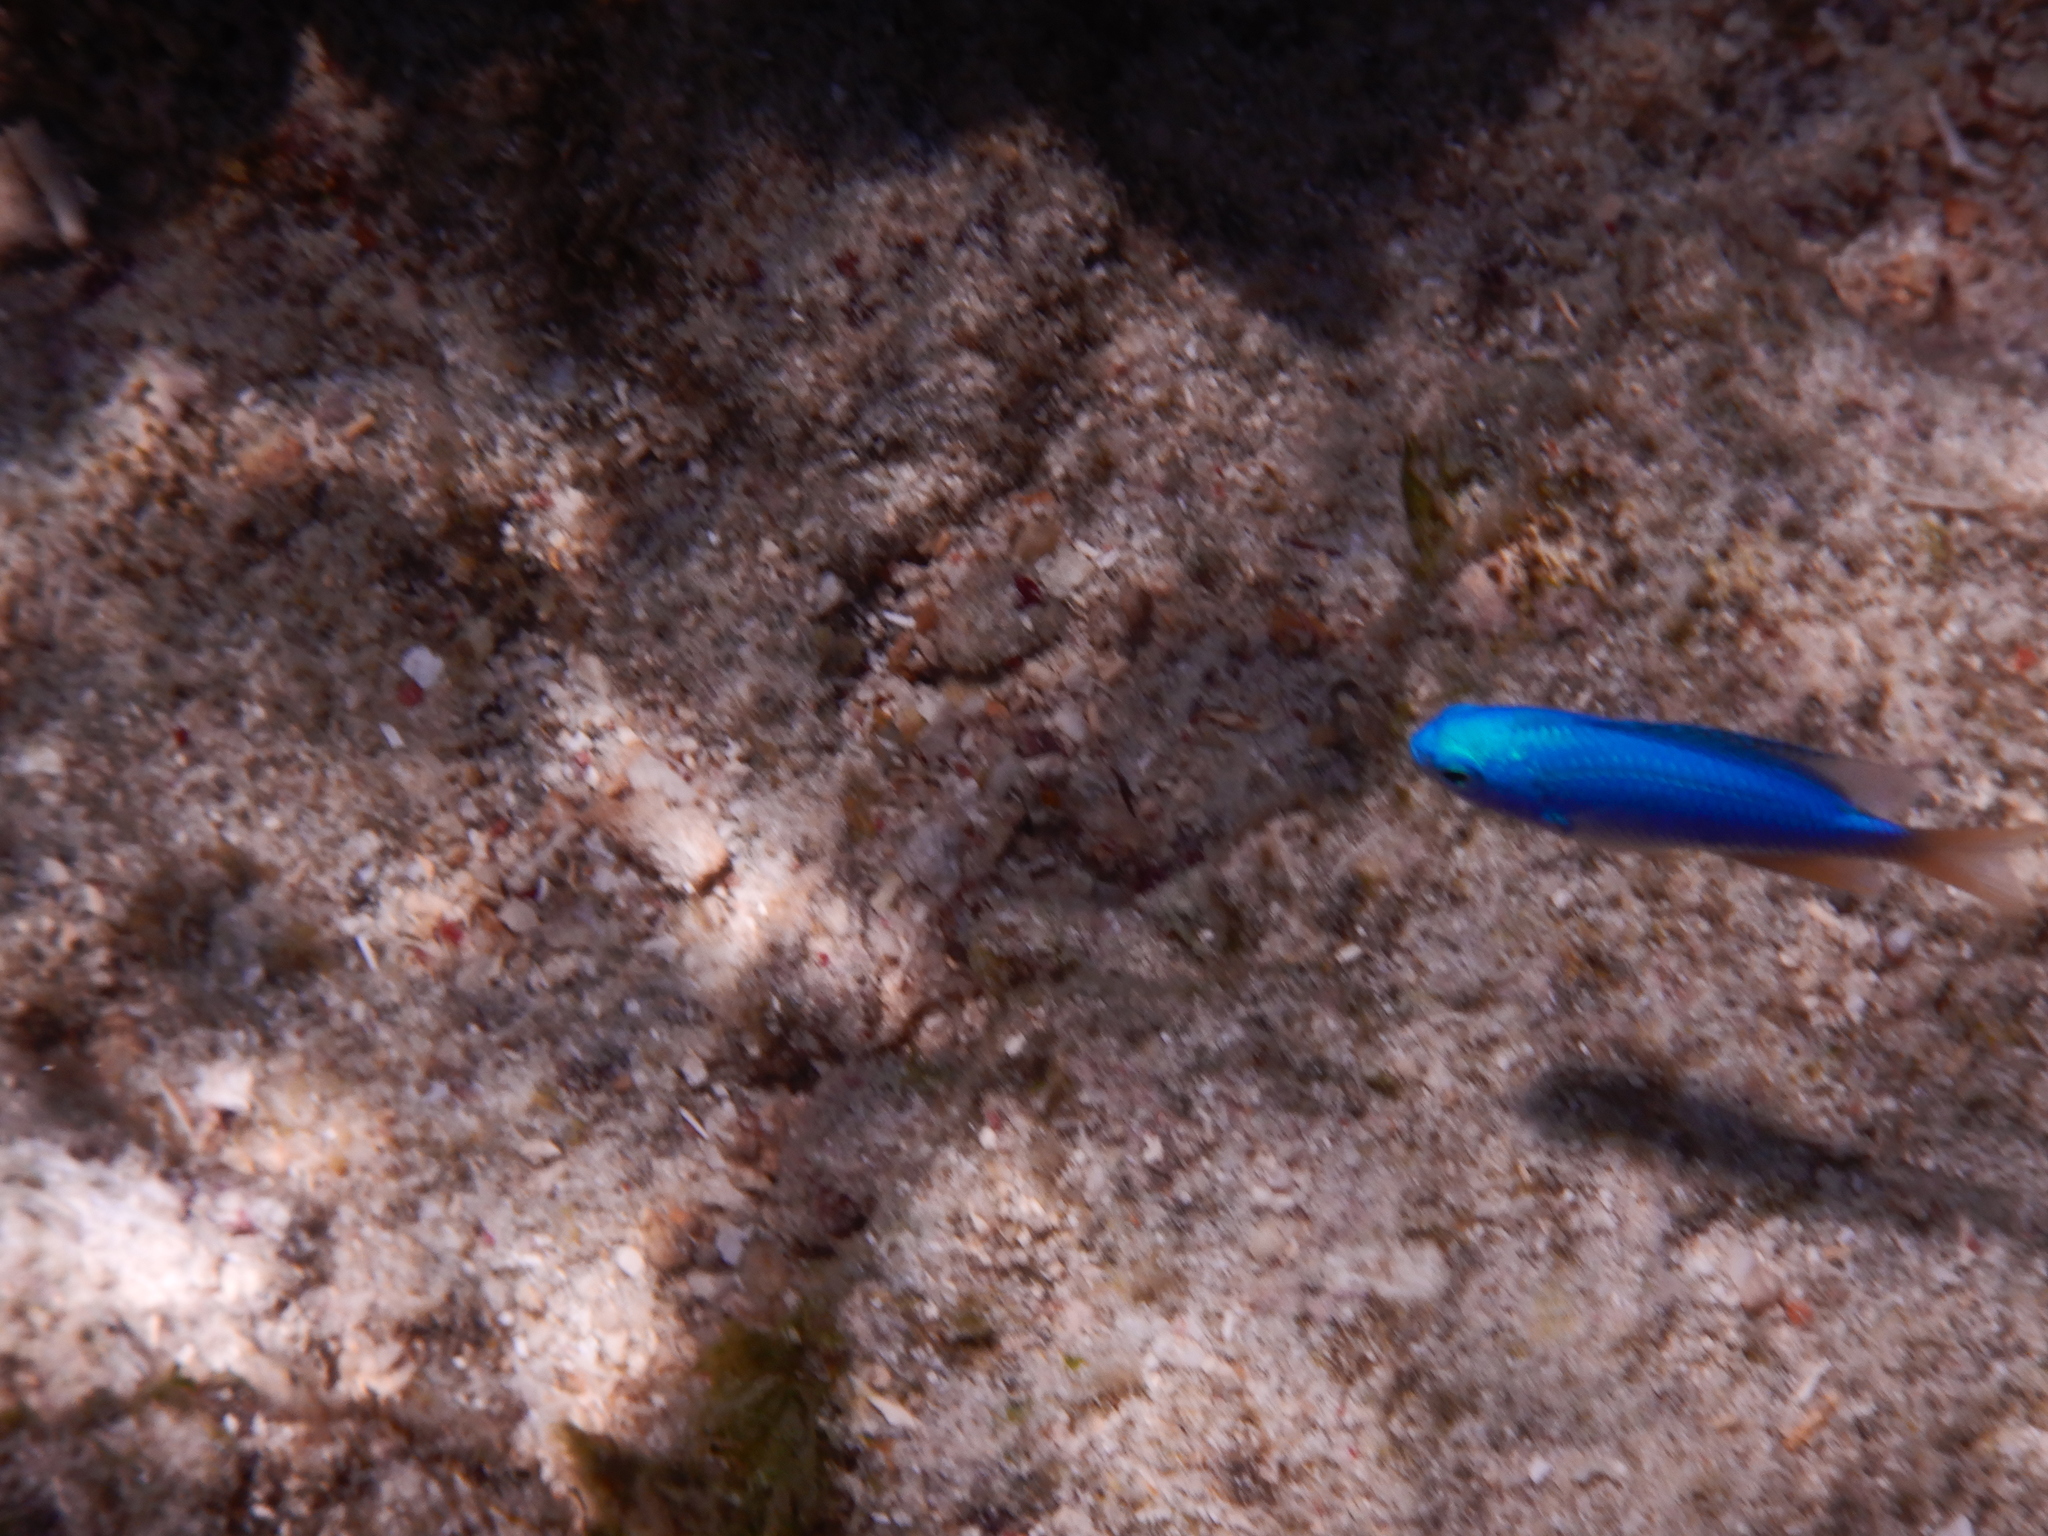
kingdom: Animalia
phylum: Chordata
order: Perciformes
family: Pomacentridae
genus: Pomacentrus
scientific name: Pomacentrus coelestis
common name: Neon damsel
